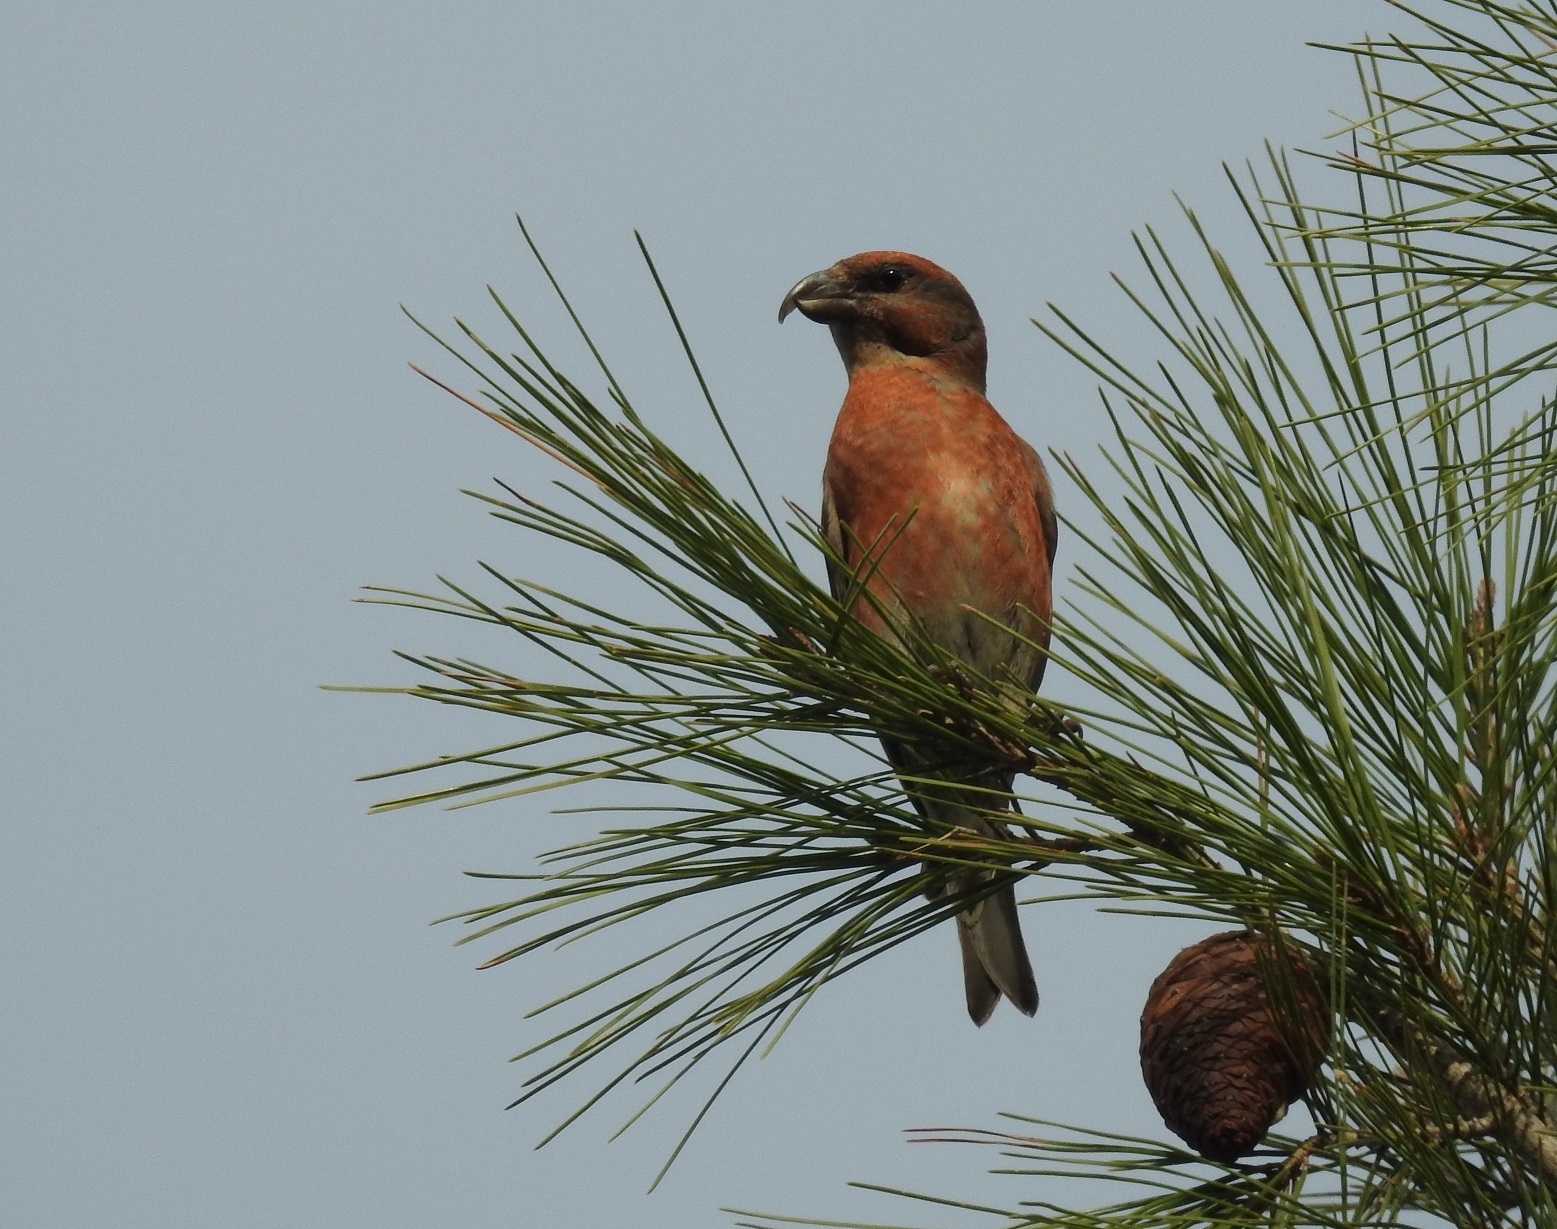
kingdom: Animalia
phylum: Chordata
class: Aves
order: Passeriformes
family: Fringillidae
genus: Loxia
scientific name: Loxia curvirostra
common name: Red crossbill
